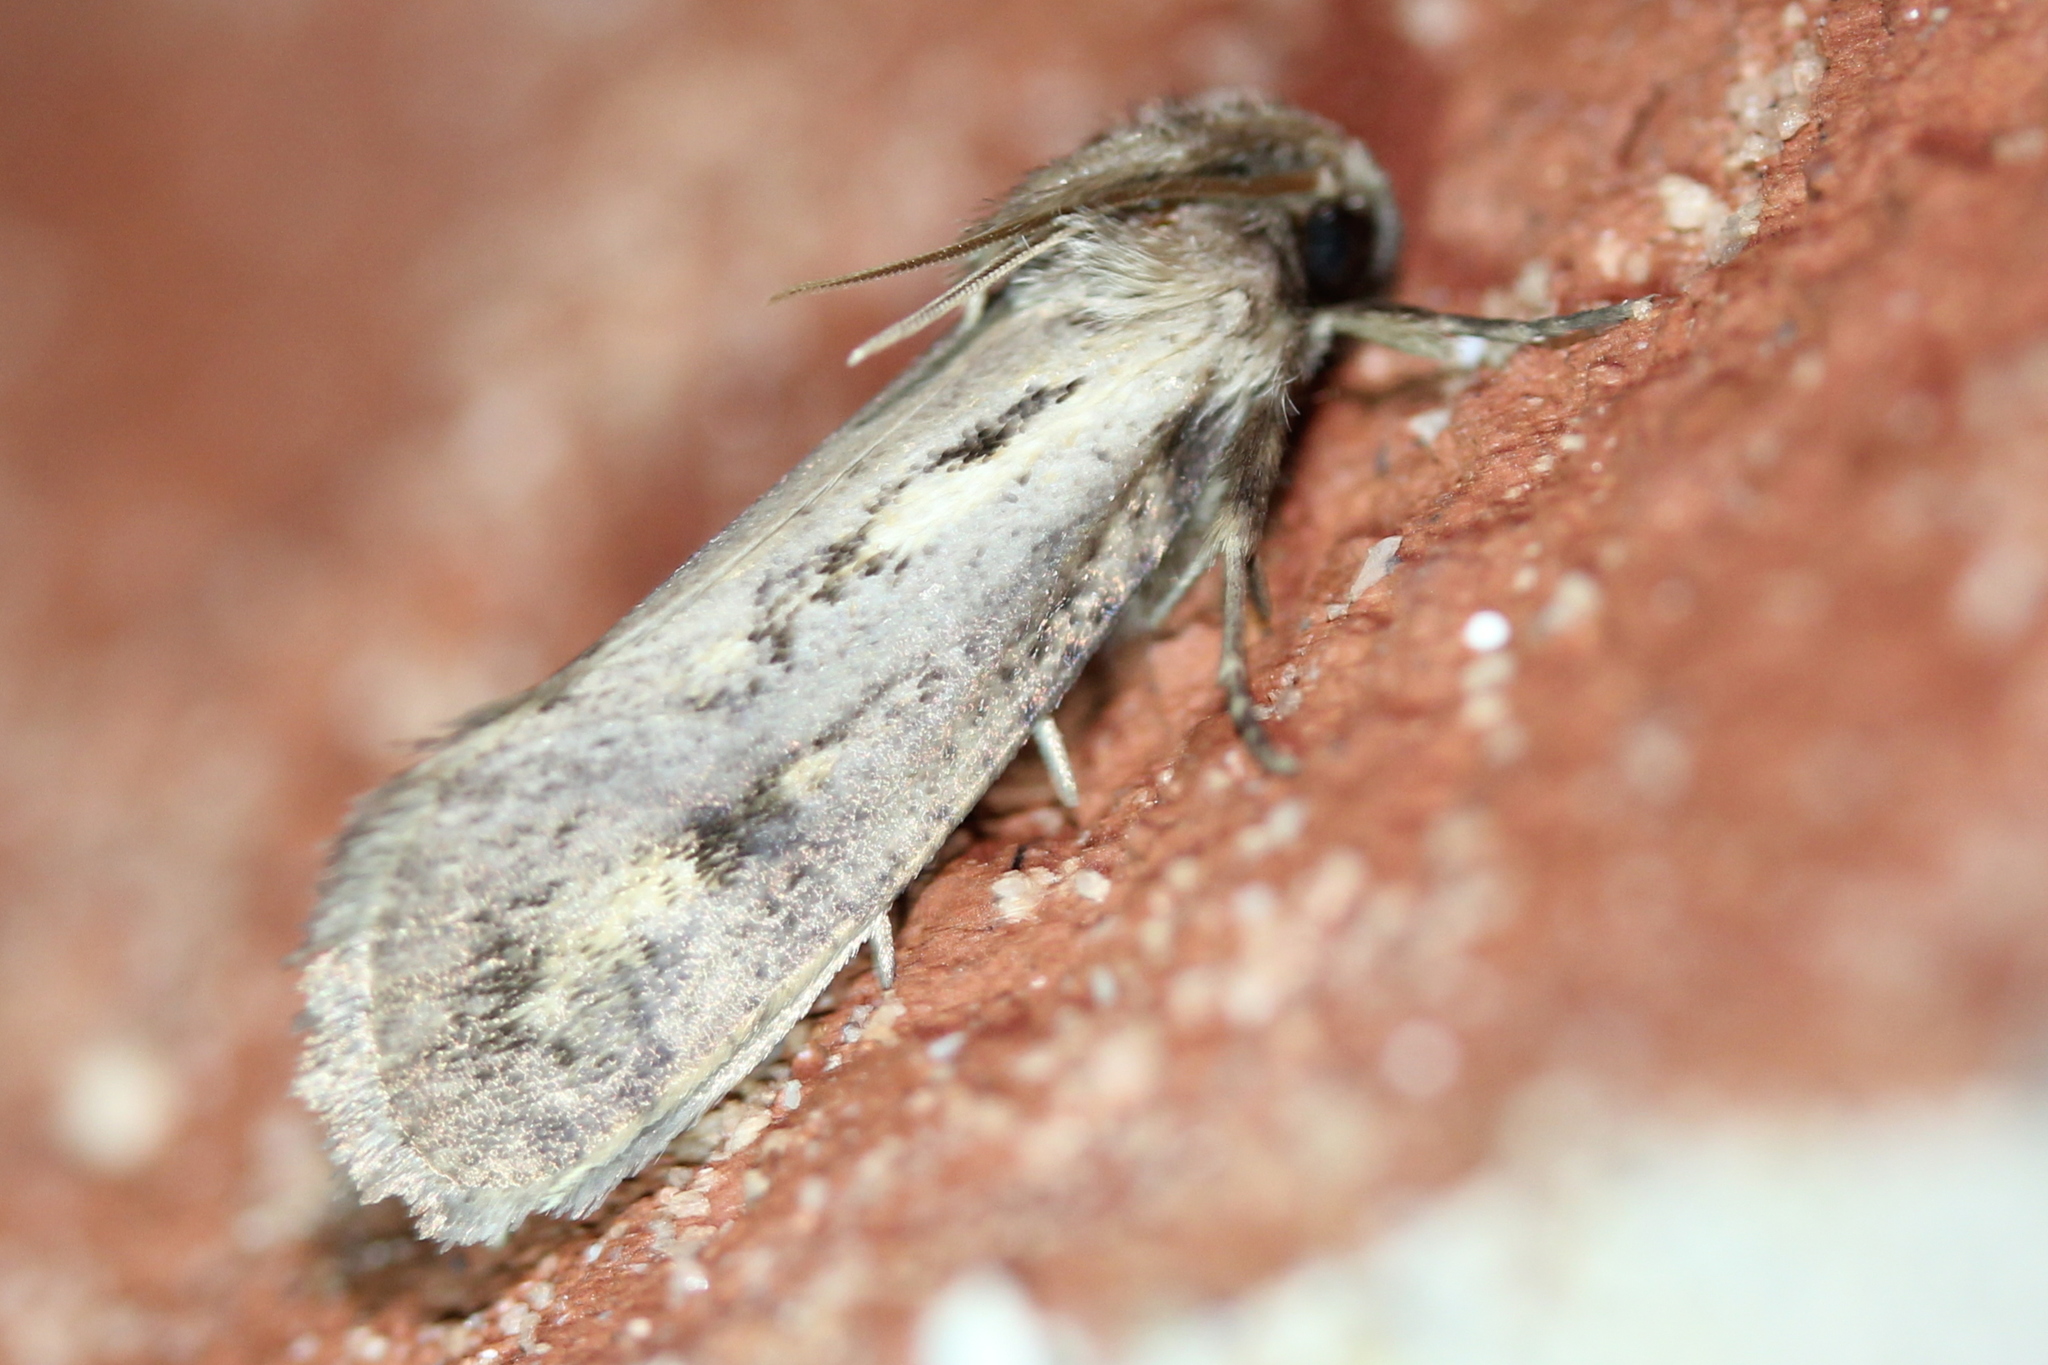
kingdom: Animalia
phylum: Arthropoda
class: Insecta
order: Lepidoptera
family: Tineidae
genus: Acrolophus
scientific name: Acrolophus popeanella
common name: Clemens' grass tubeworm moth
